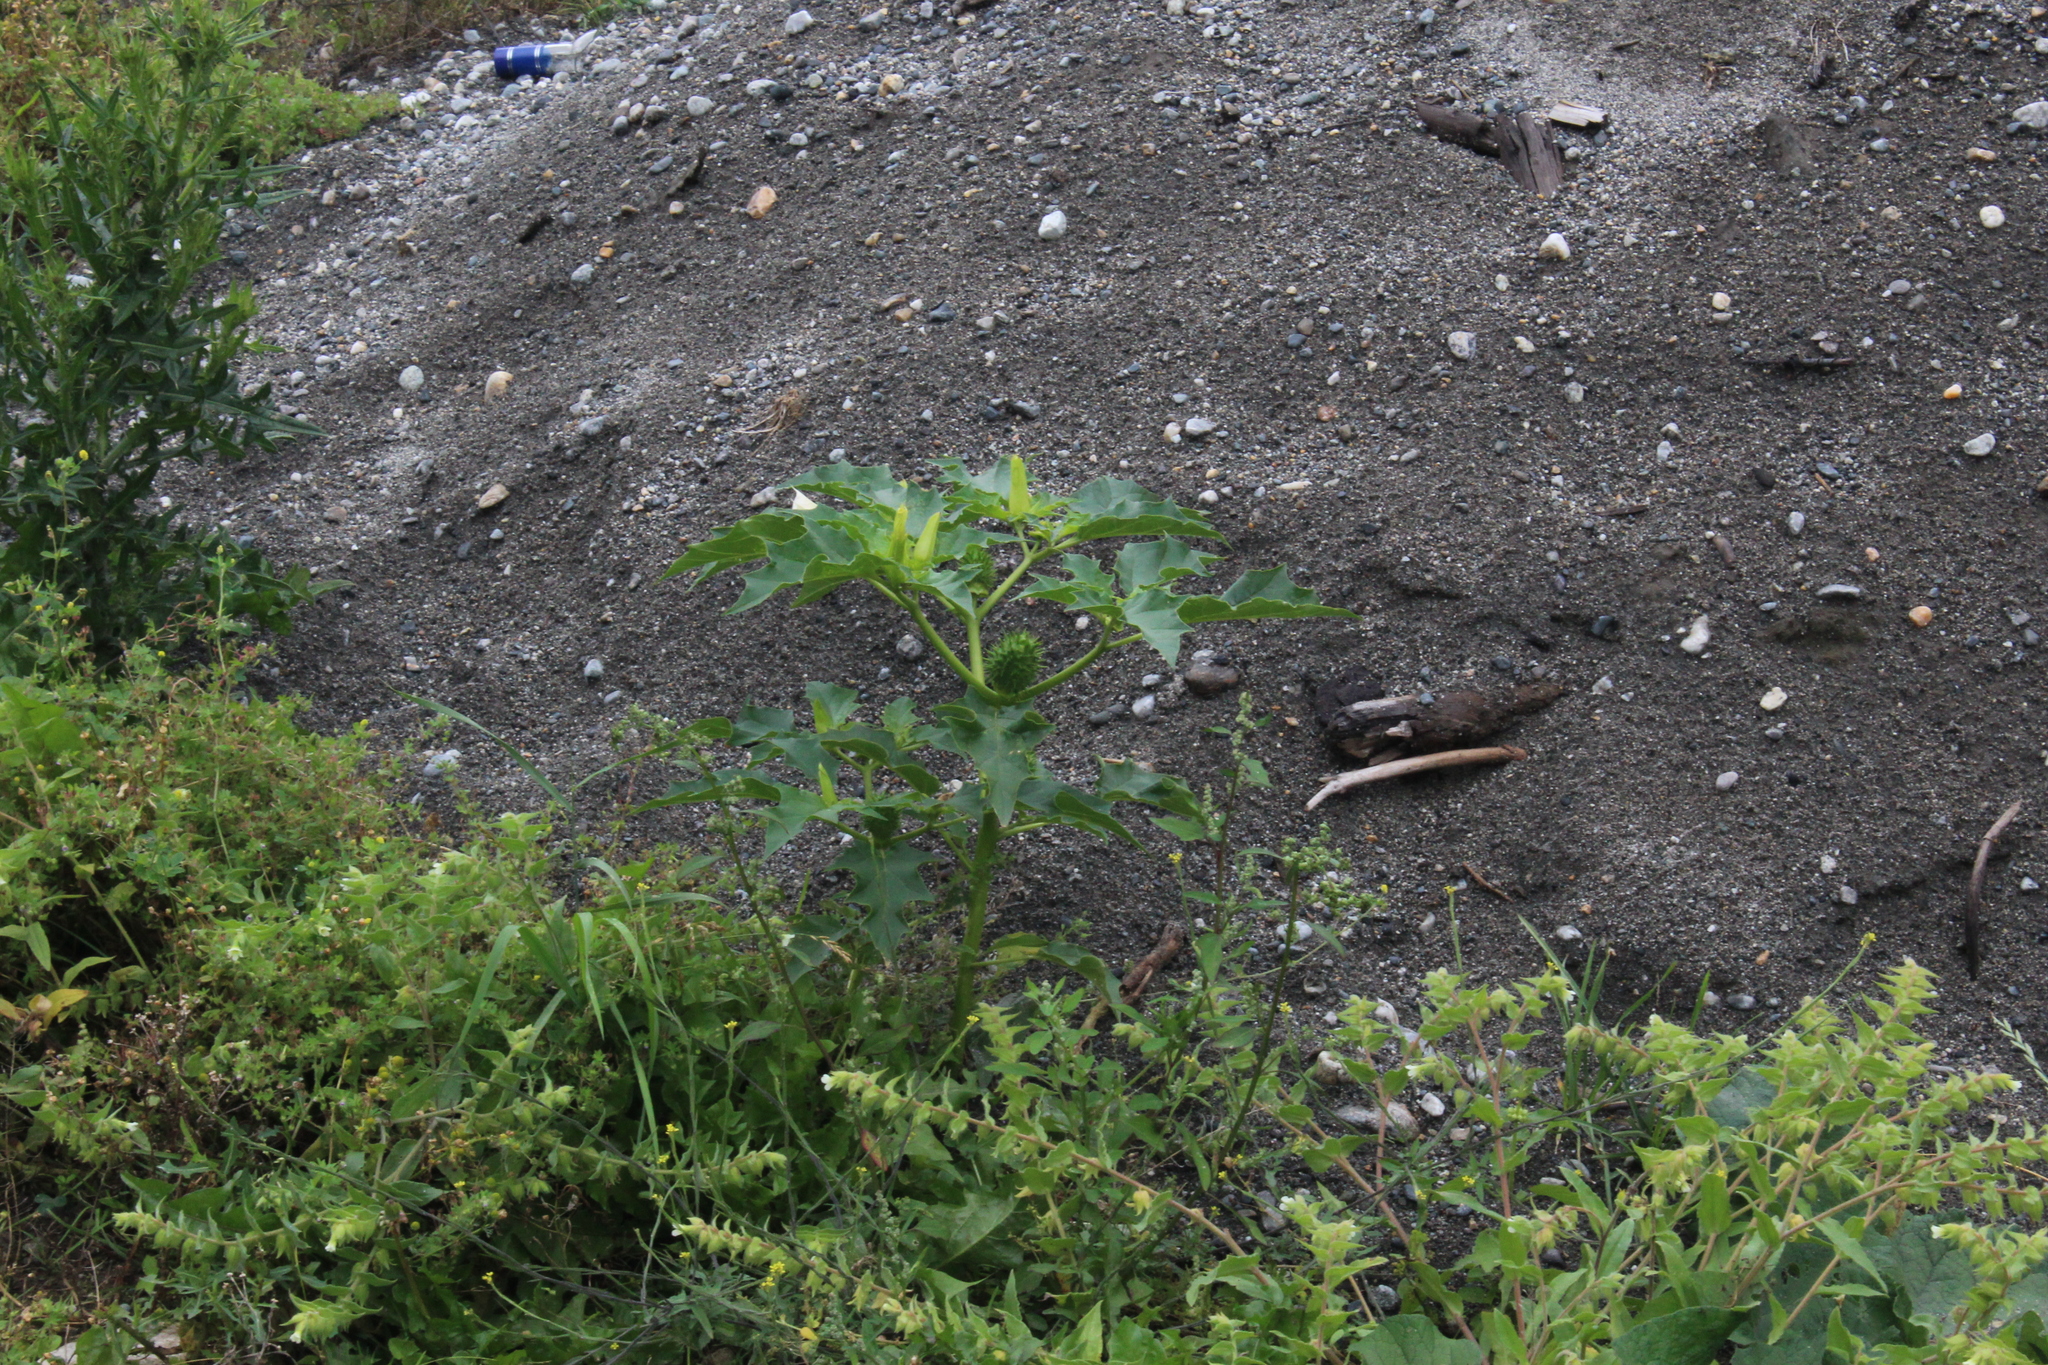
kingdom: Plantae
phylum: Tracheophyta
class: Magnoliopsida
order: Solanales
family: Solanaceae
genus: Datura
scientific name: Datura stramonium
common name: Thorn-apple
